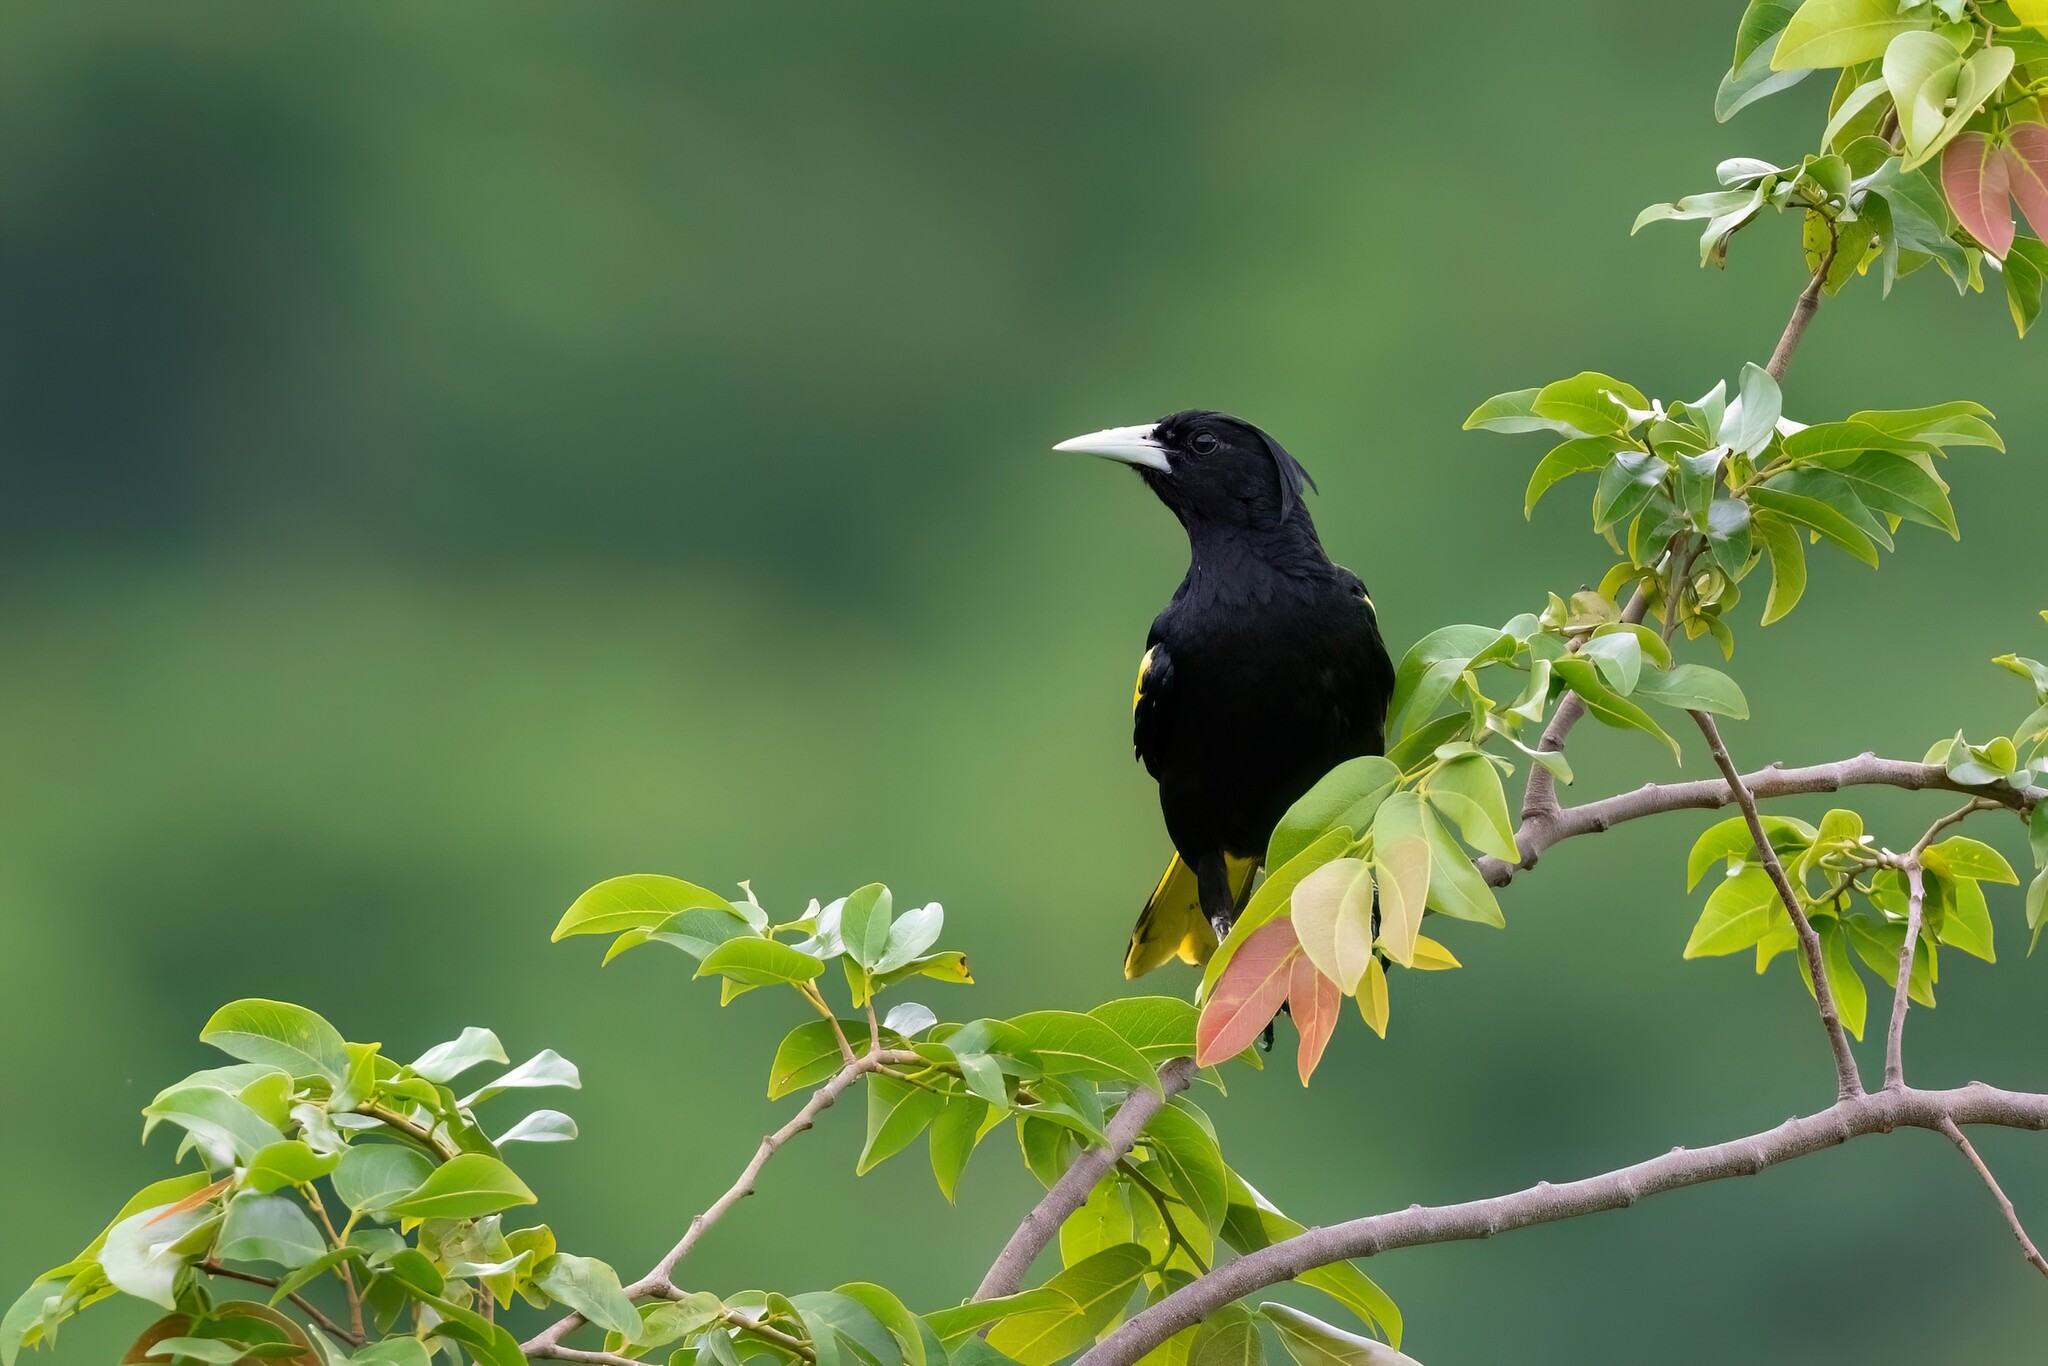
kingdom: Animalia
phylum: Chordata
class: Aves
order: Passeriformes
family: Icteridae
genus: Cacicus
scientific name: Cacicus melanicterus
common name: Yellow-winged cacique
